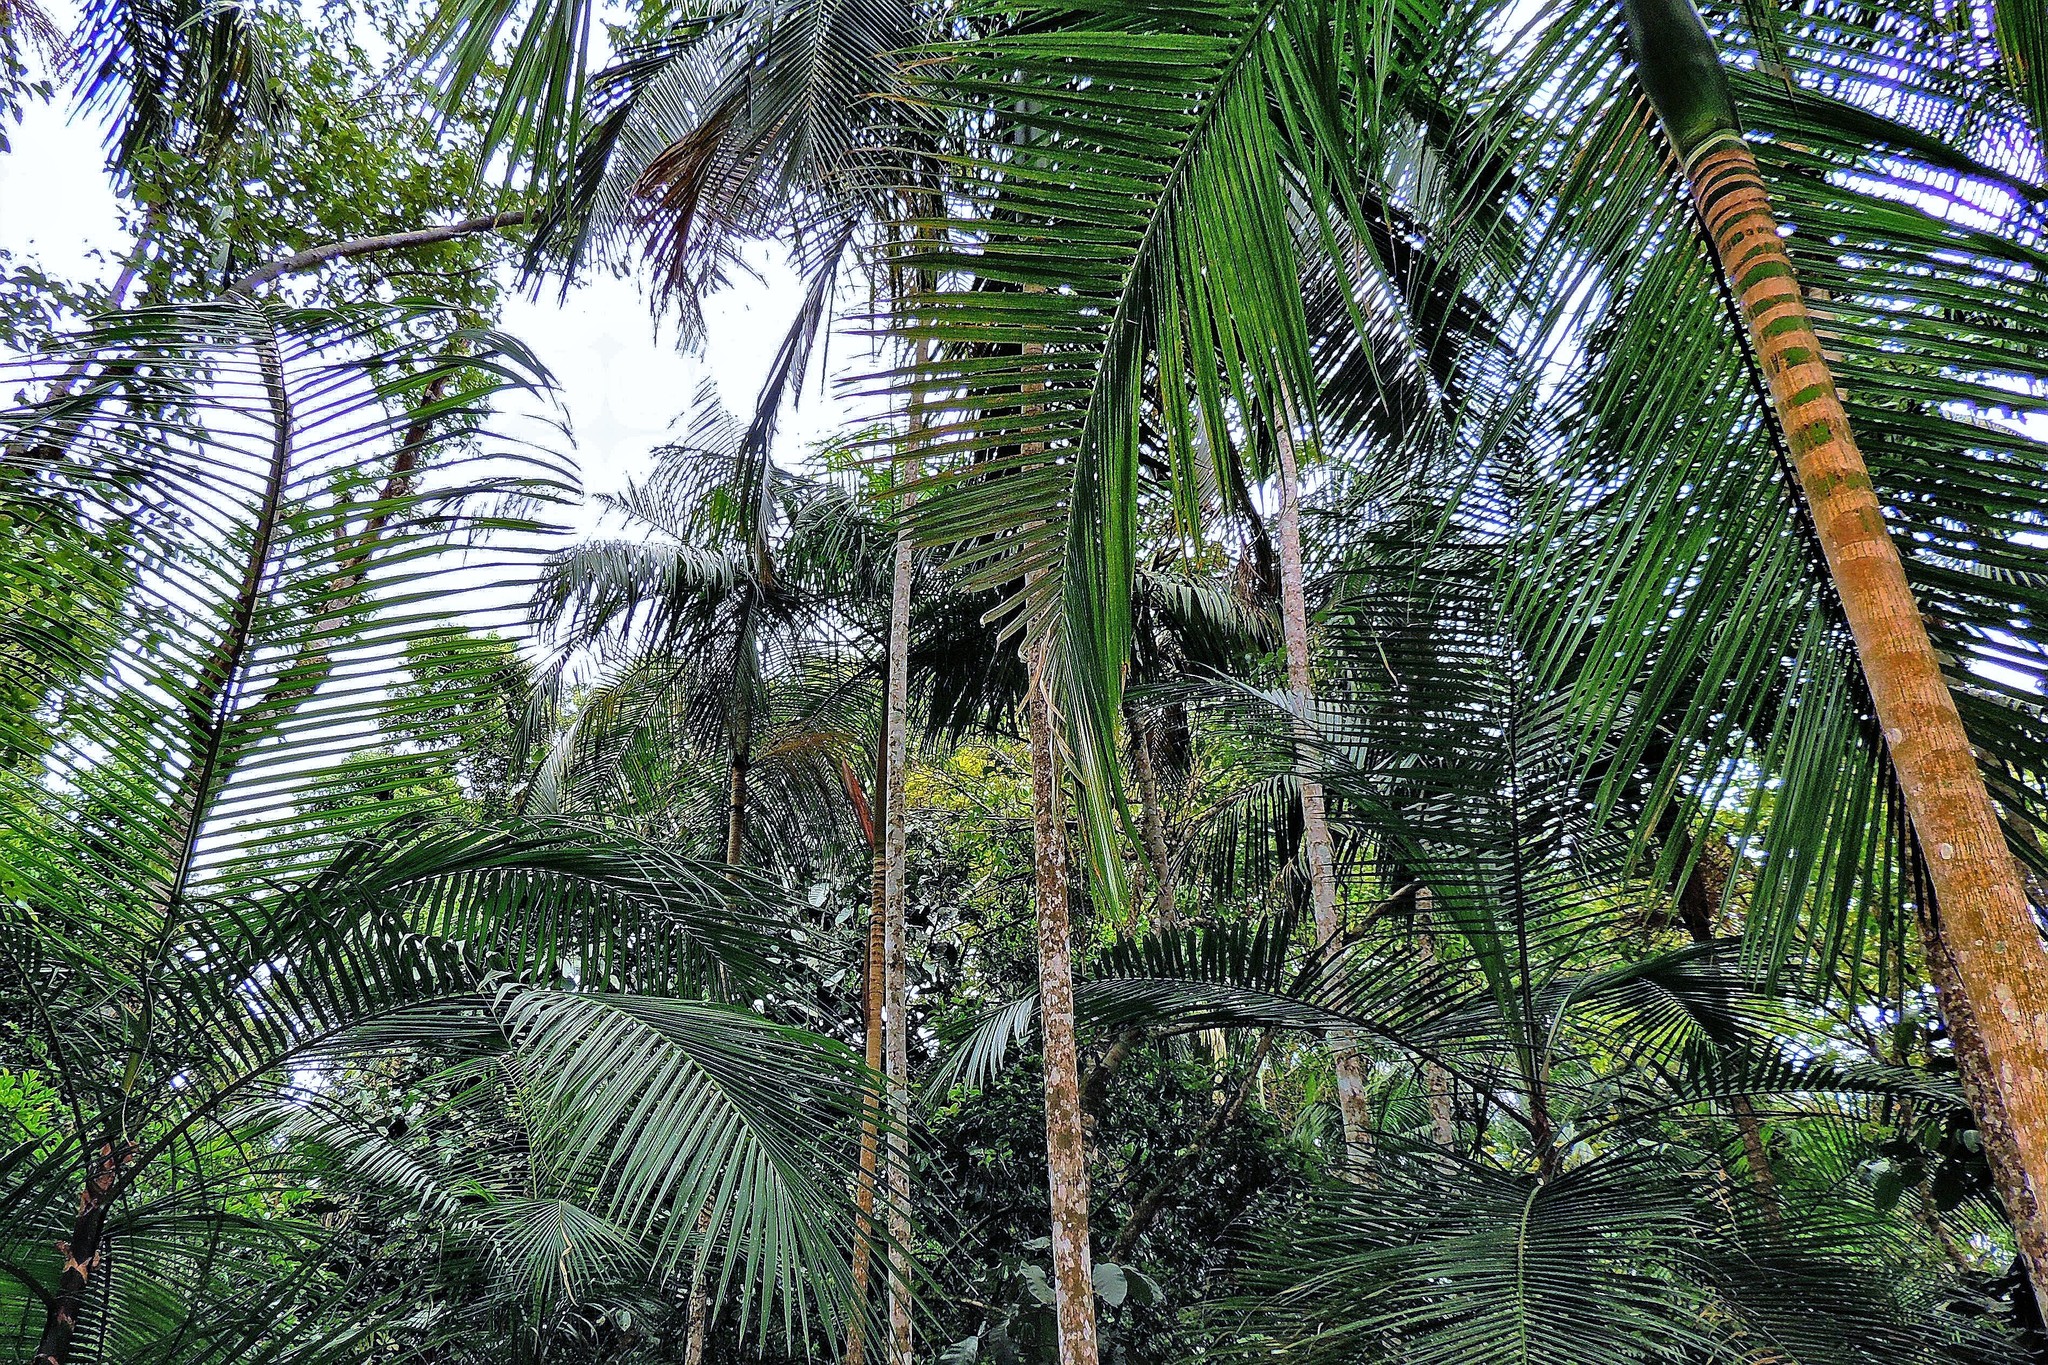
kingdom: Plantae
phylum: Tracheophyta
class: Liliopsida
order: Arecales
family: Arecaceae
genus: Euterpe
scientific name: Euterpe edulis
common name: Assai palm
